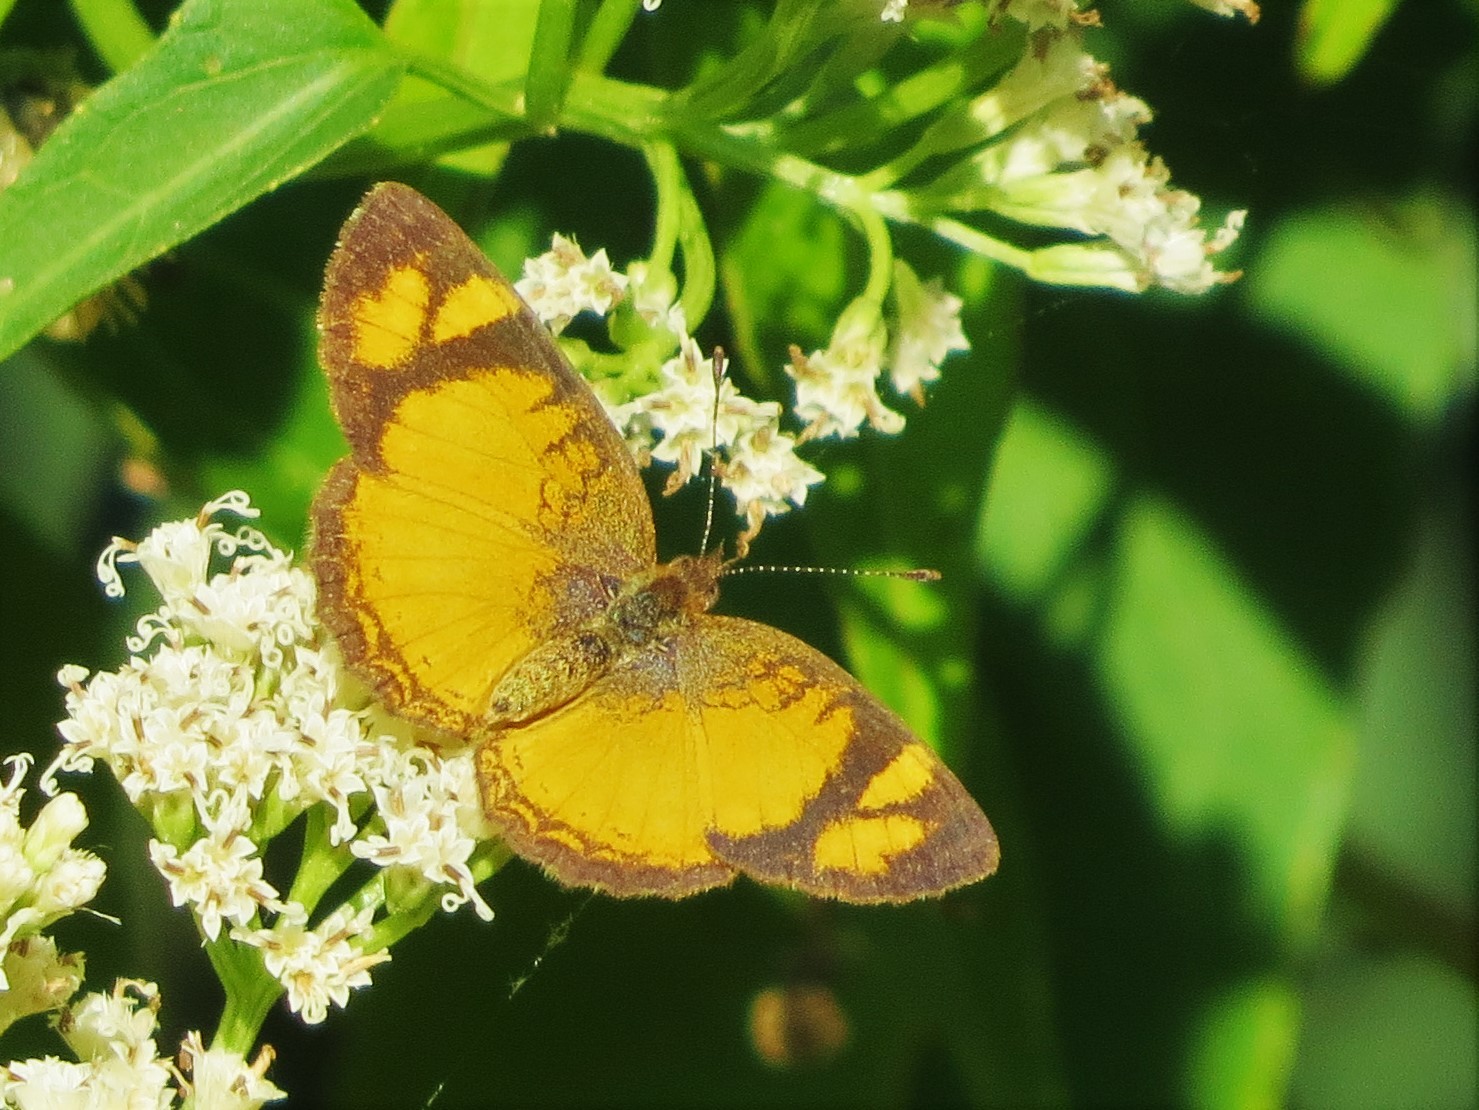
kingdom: Animalia
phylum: Arthropoda
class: Insecta
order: Lepidoptera
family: Nymphalidae
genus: Tegosa
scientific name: Tegosa claudina
